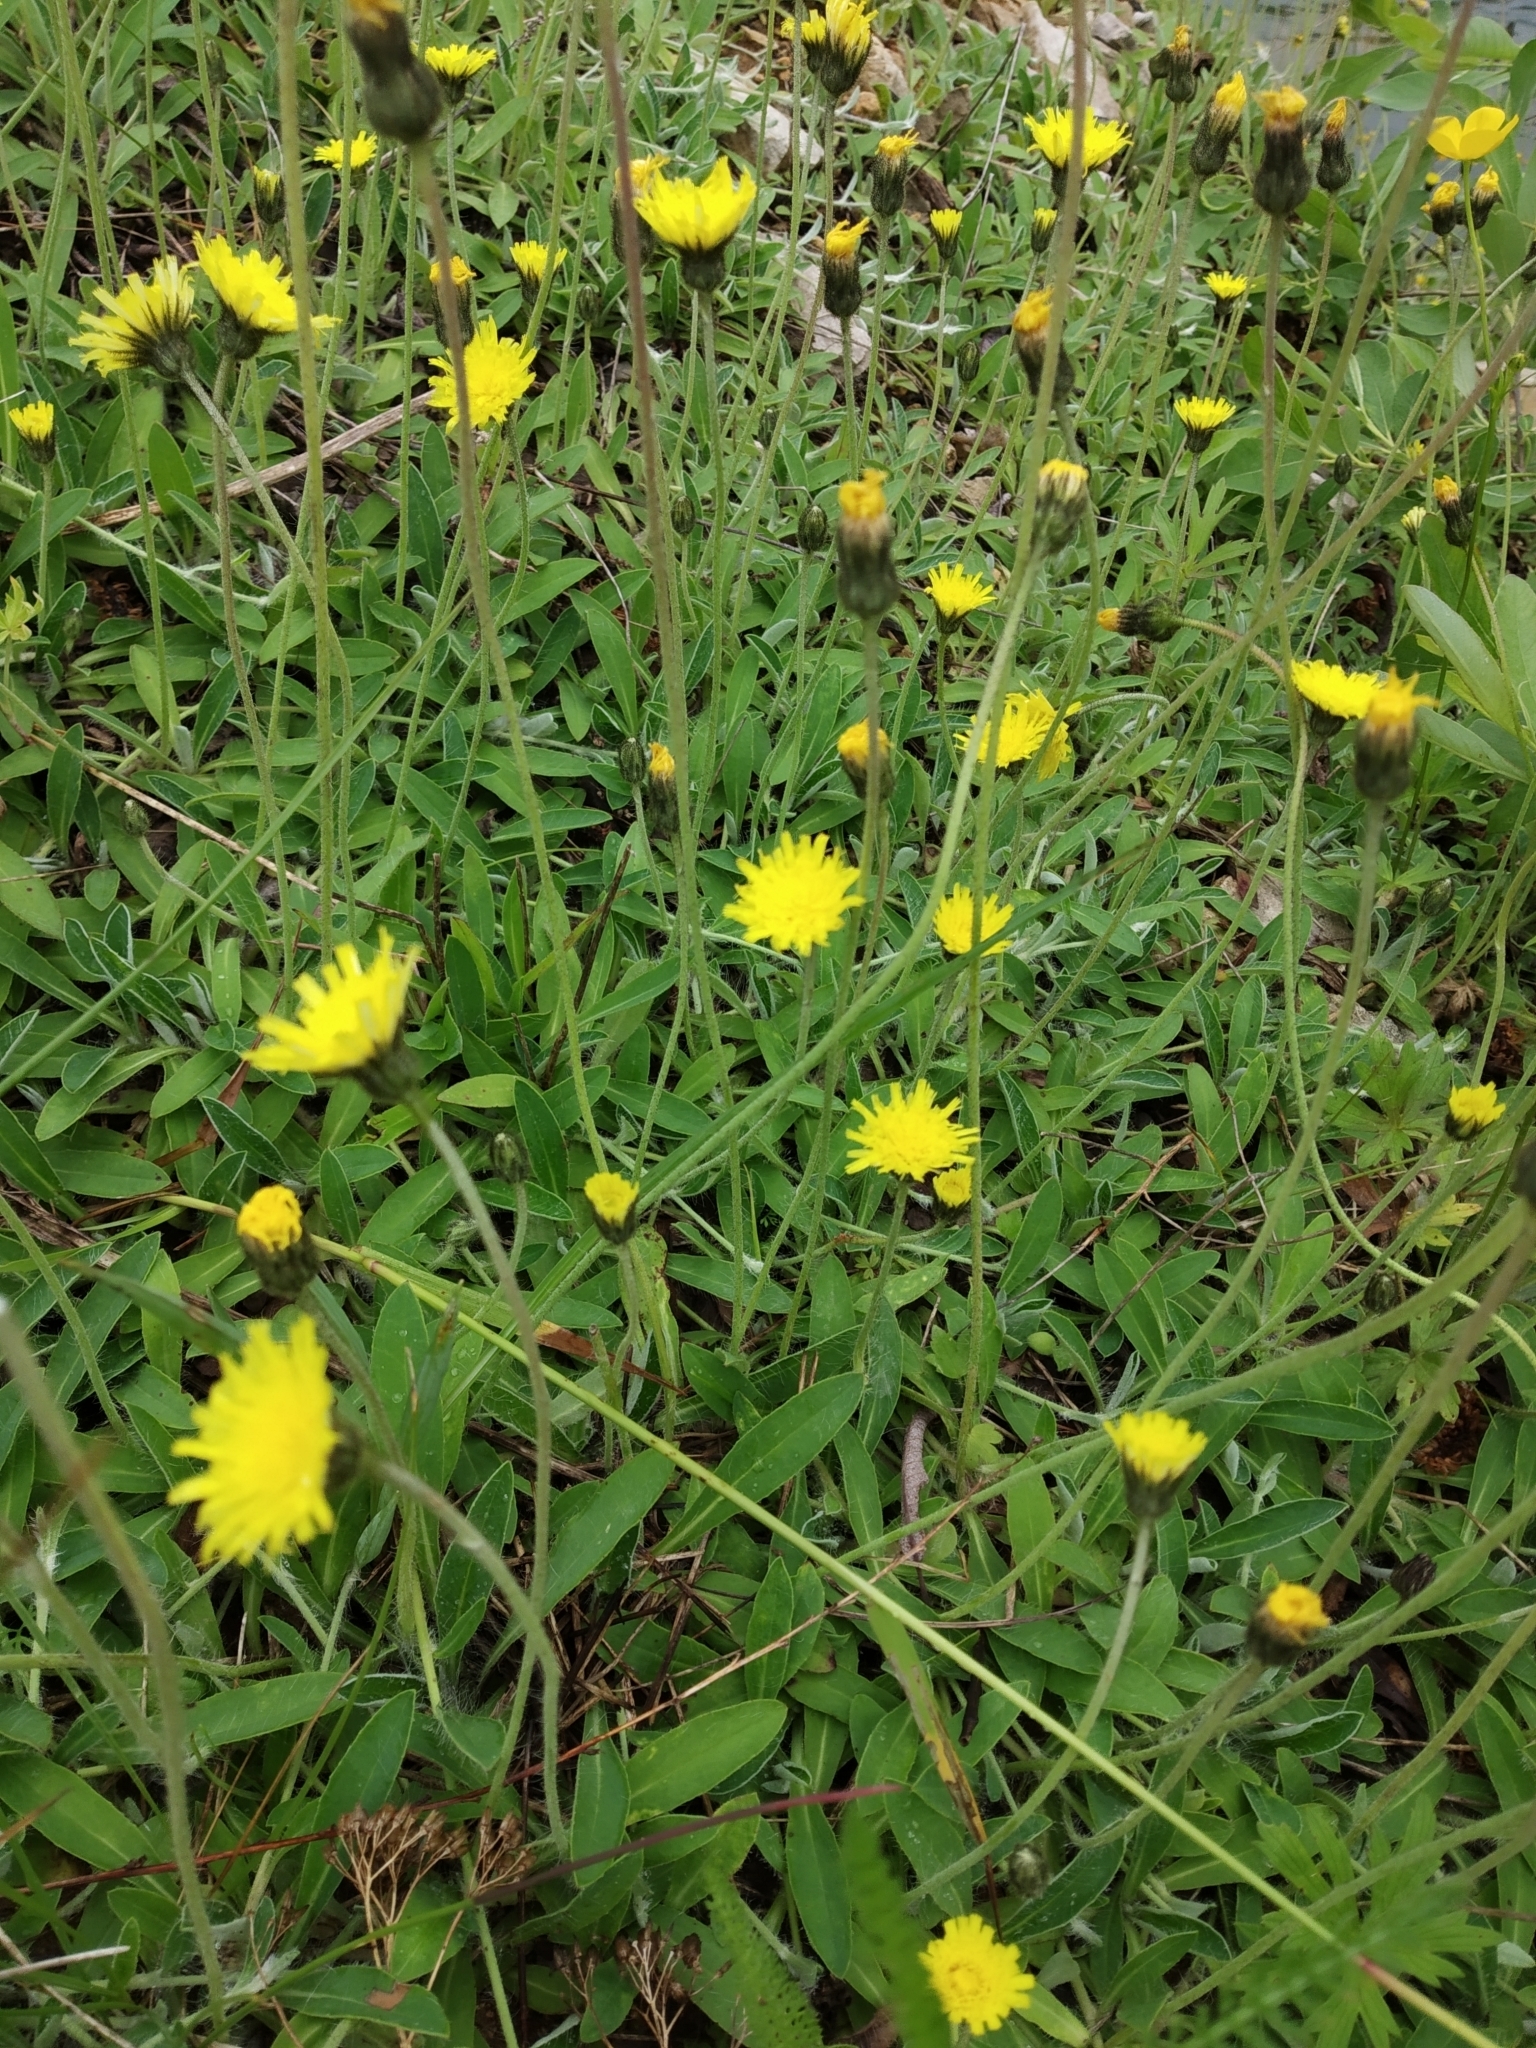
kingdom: Plantae
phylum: Tracheophyta
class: Magnoliopsida
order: Asterales
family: Asteraceae
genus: Pilosella
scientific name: Pilosella officinarum
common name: Mouse-ear hawkweed
